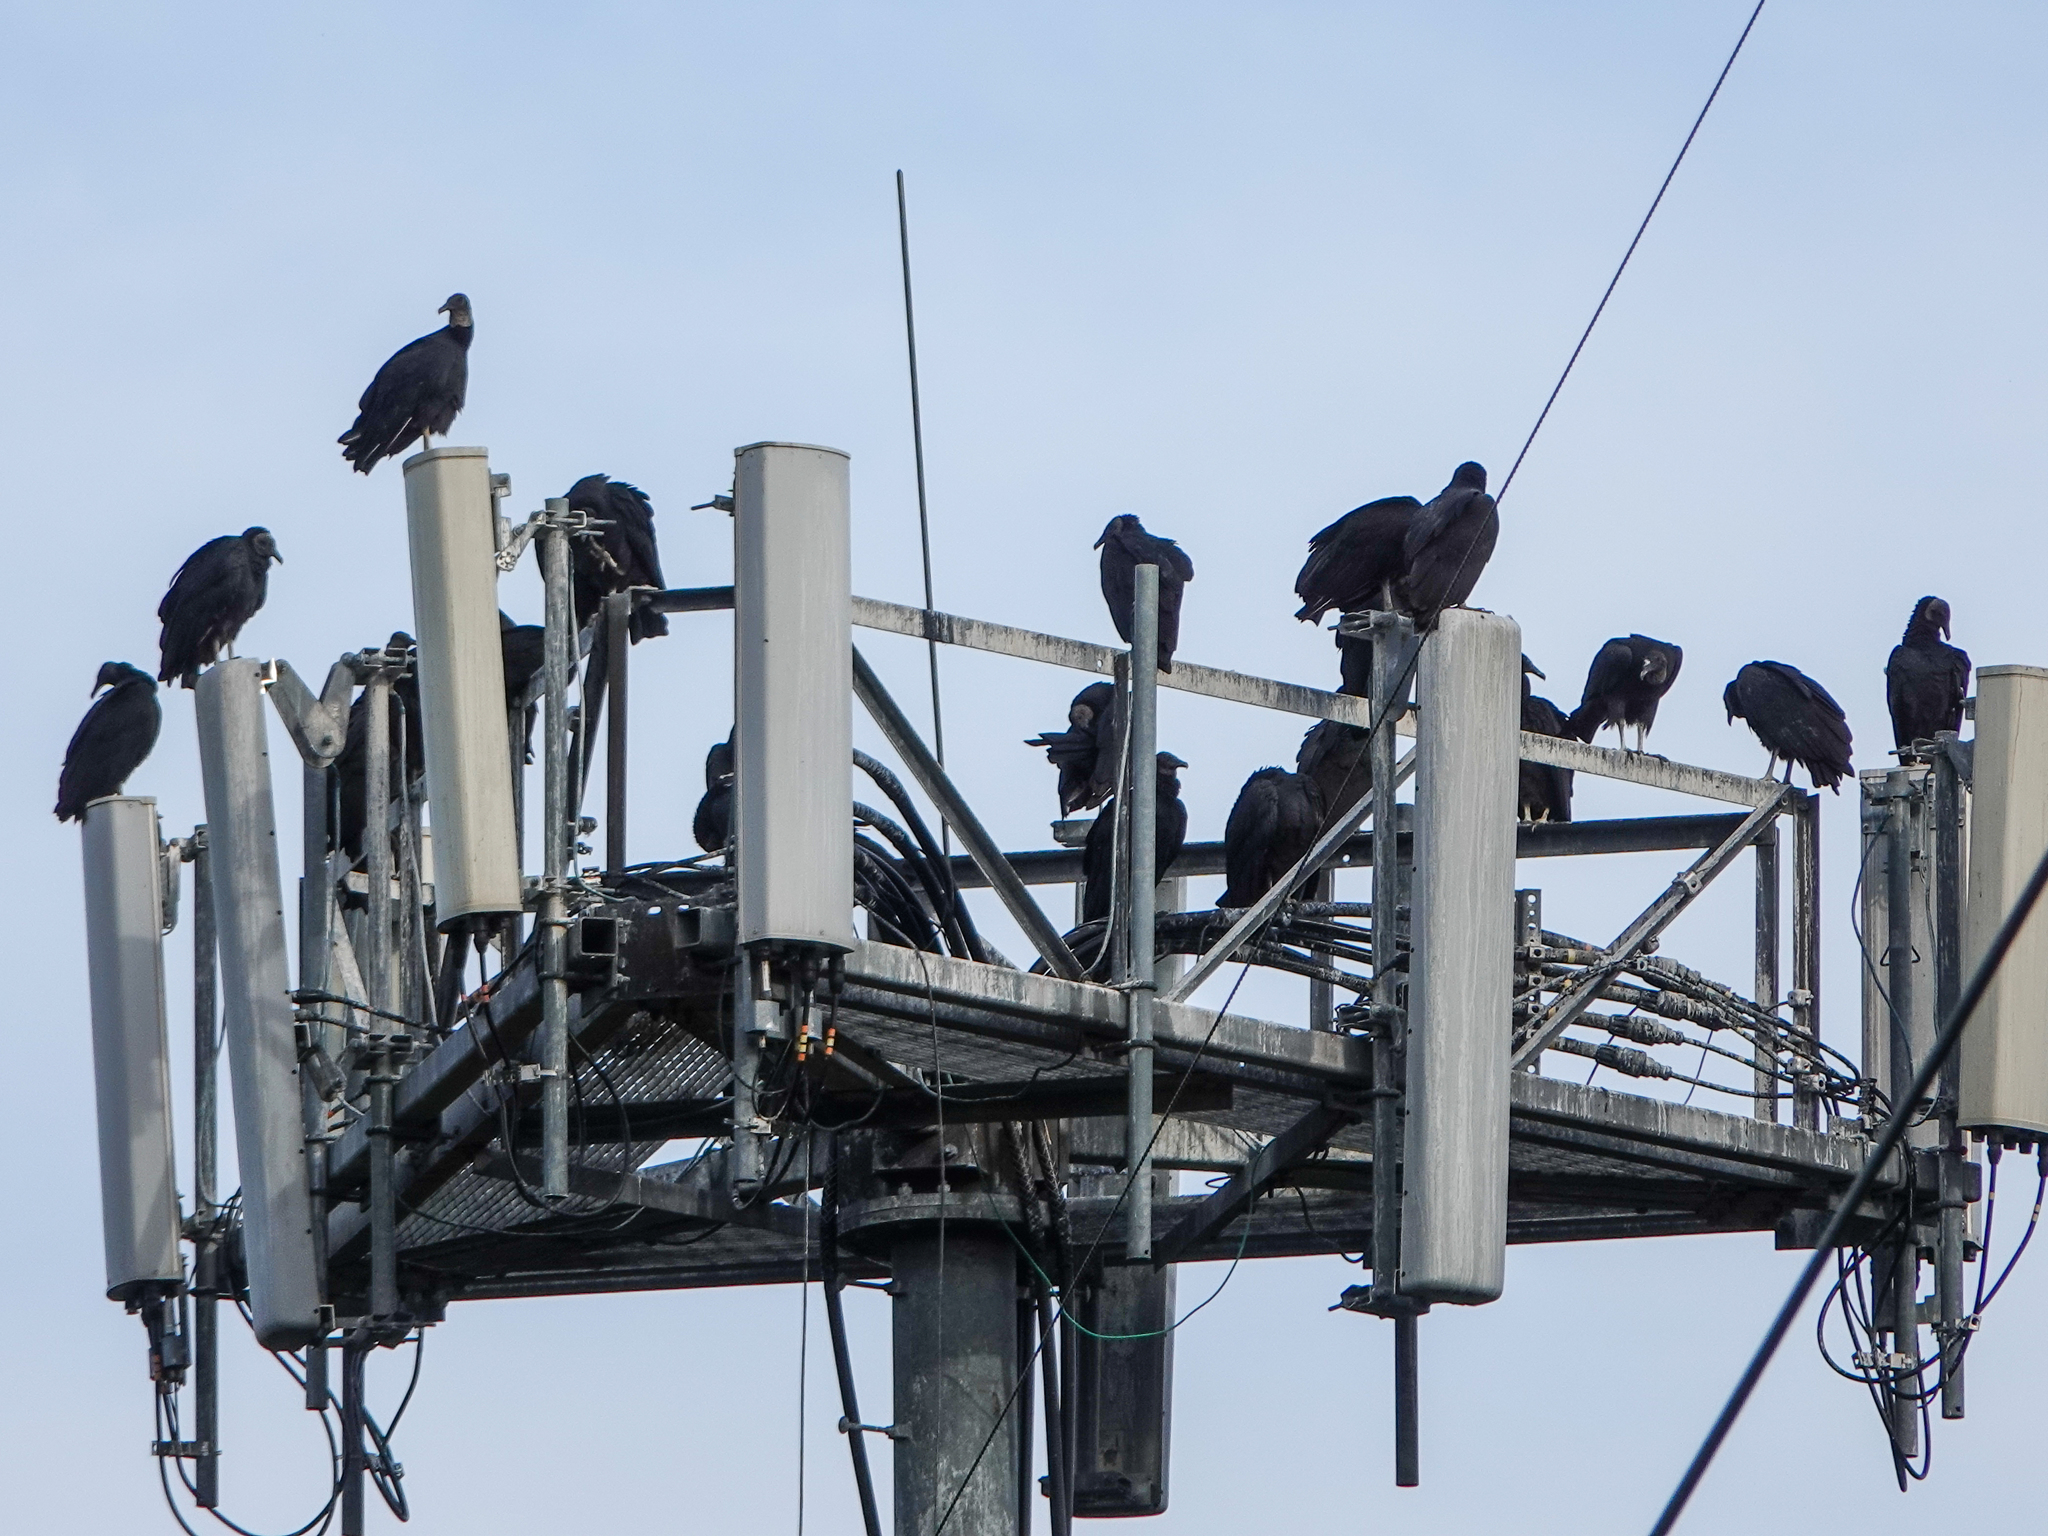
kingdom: Animalia
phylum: Chordata
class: Aves
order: Accipitriformes
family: Cathartidae
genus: Coragyps
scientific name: Coragyps atratus
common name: Black vulture
